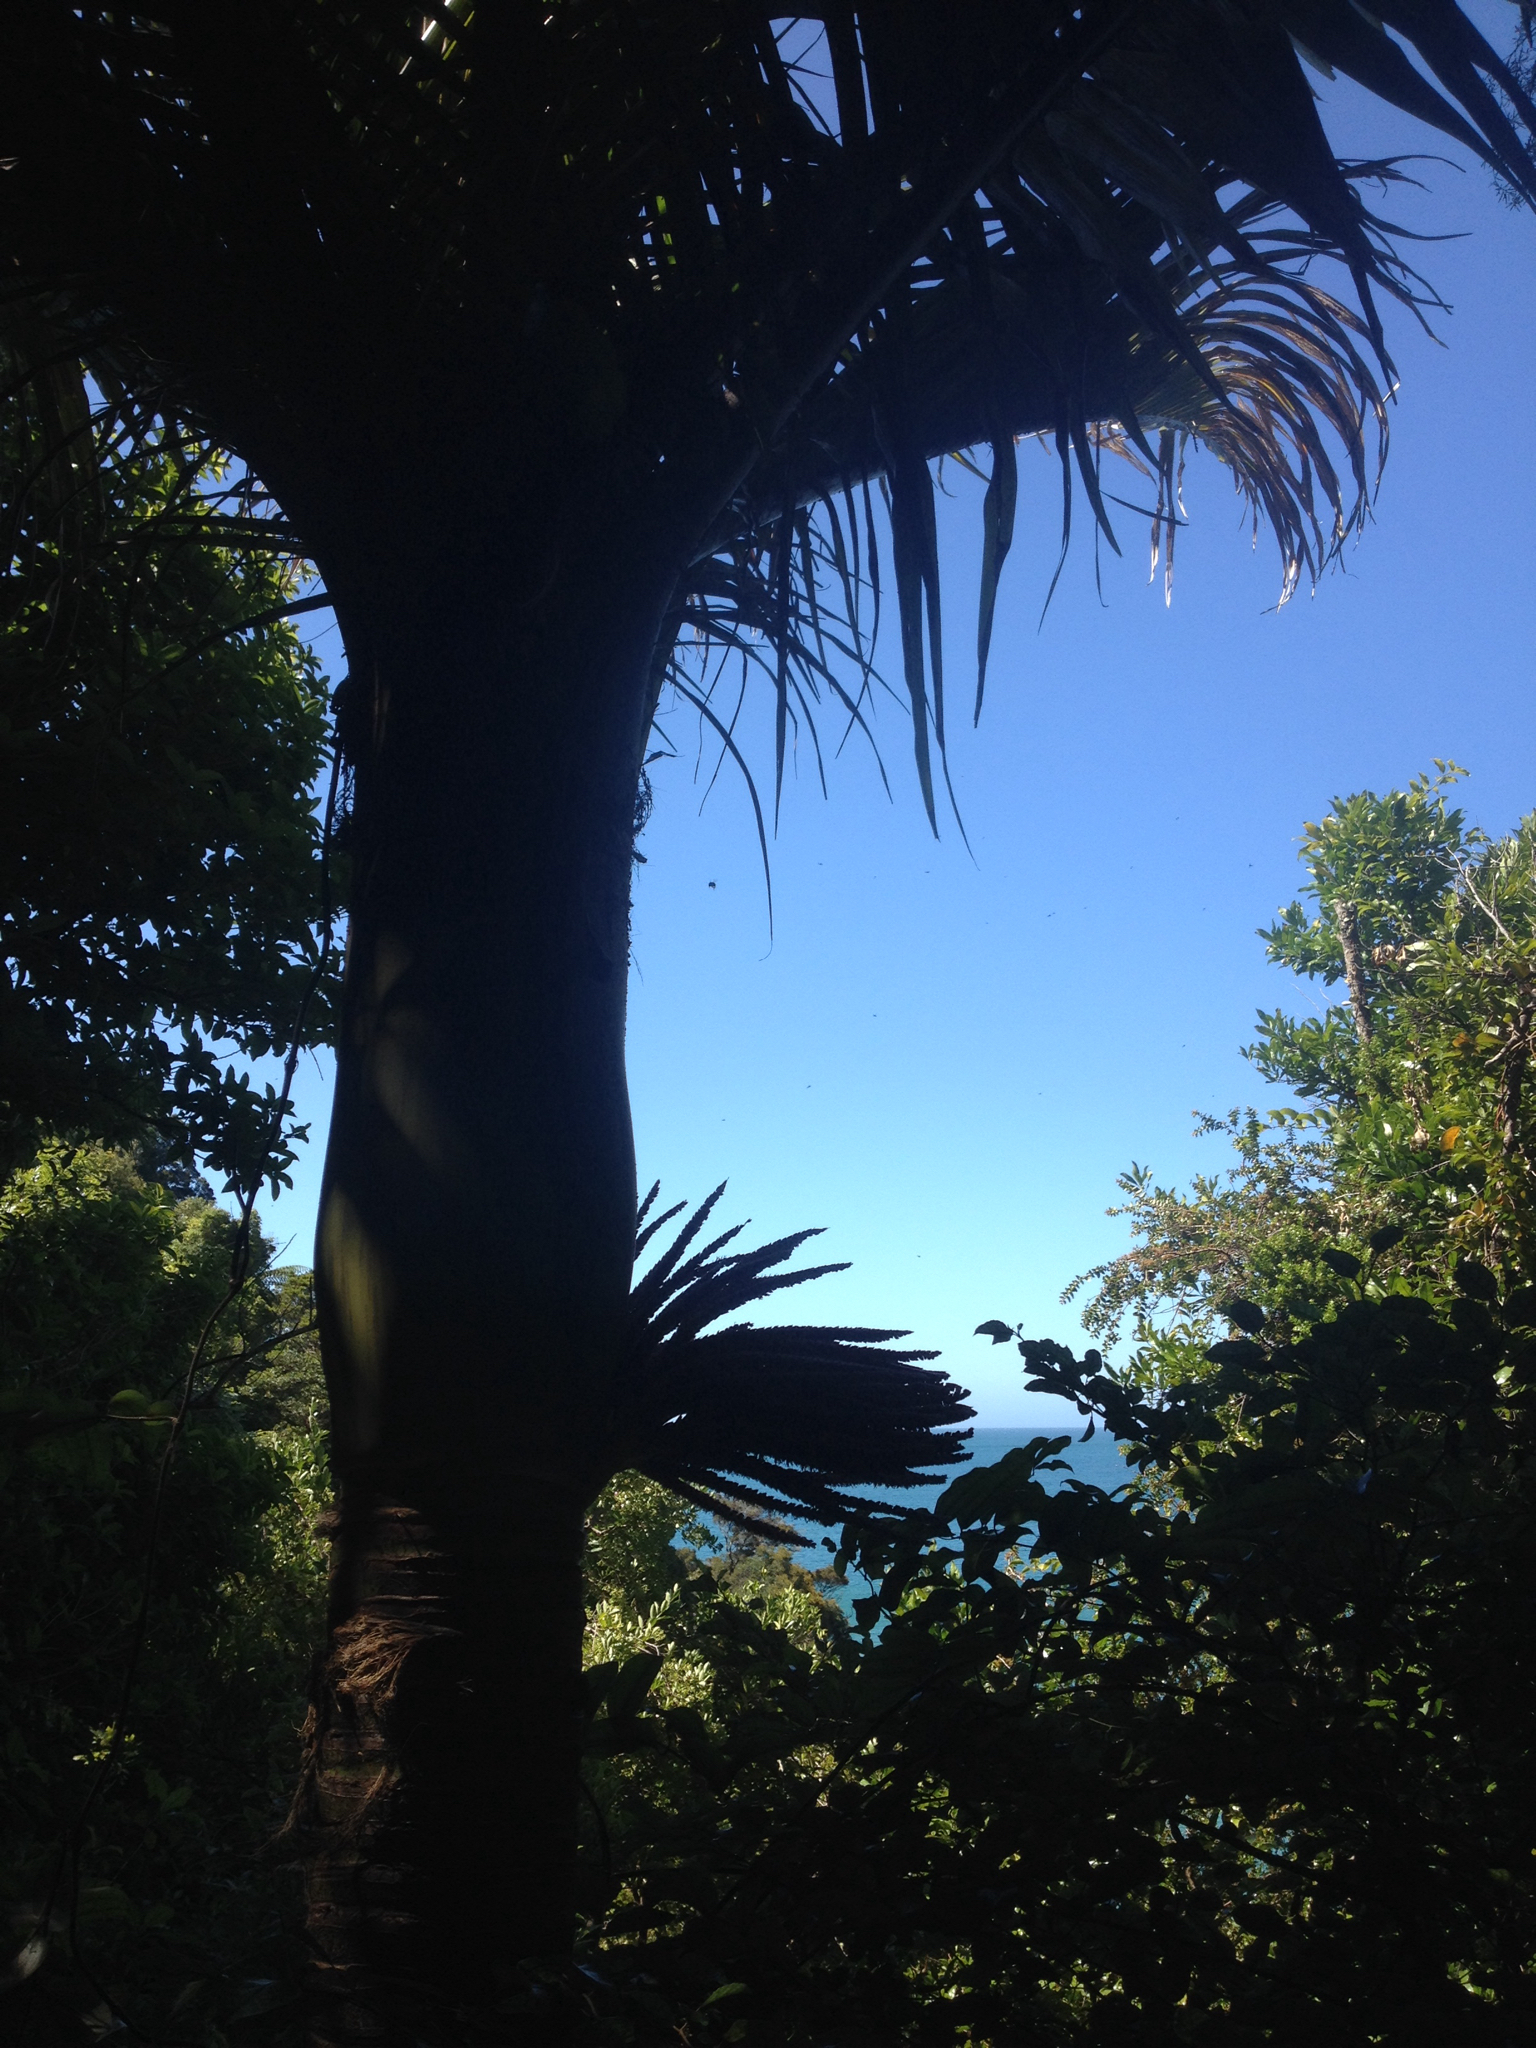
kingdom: Plantae
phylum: Tracheophyta
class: Liliopsida
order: Arecales
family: Arecaceae
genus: Rhopalostylis
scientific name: Rhopalostylis sapida
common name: Feather-duster palm
